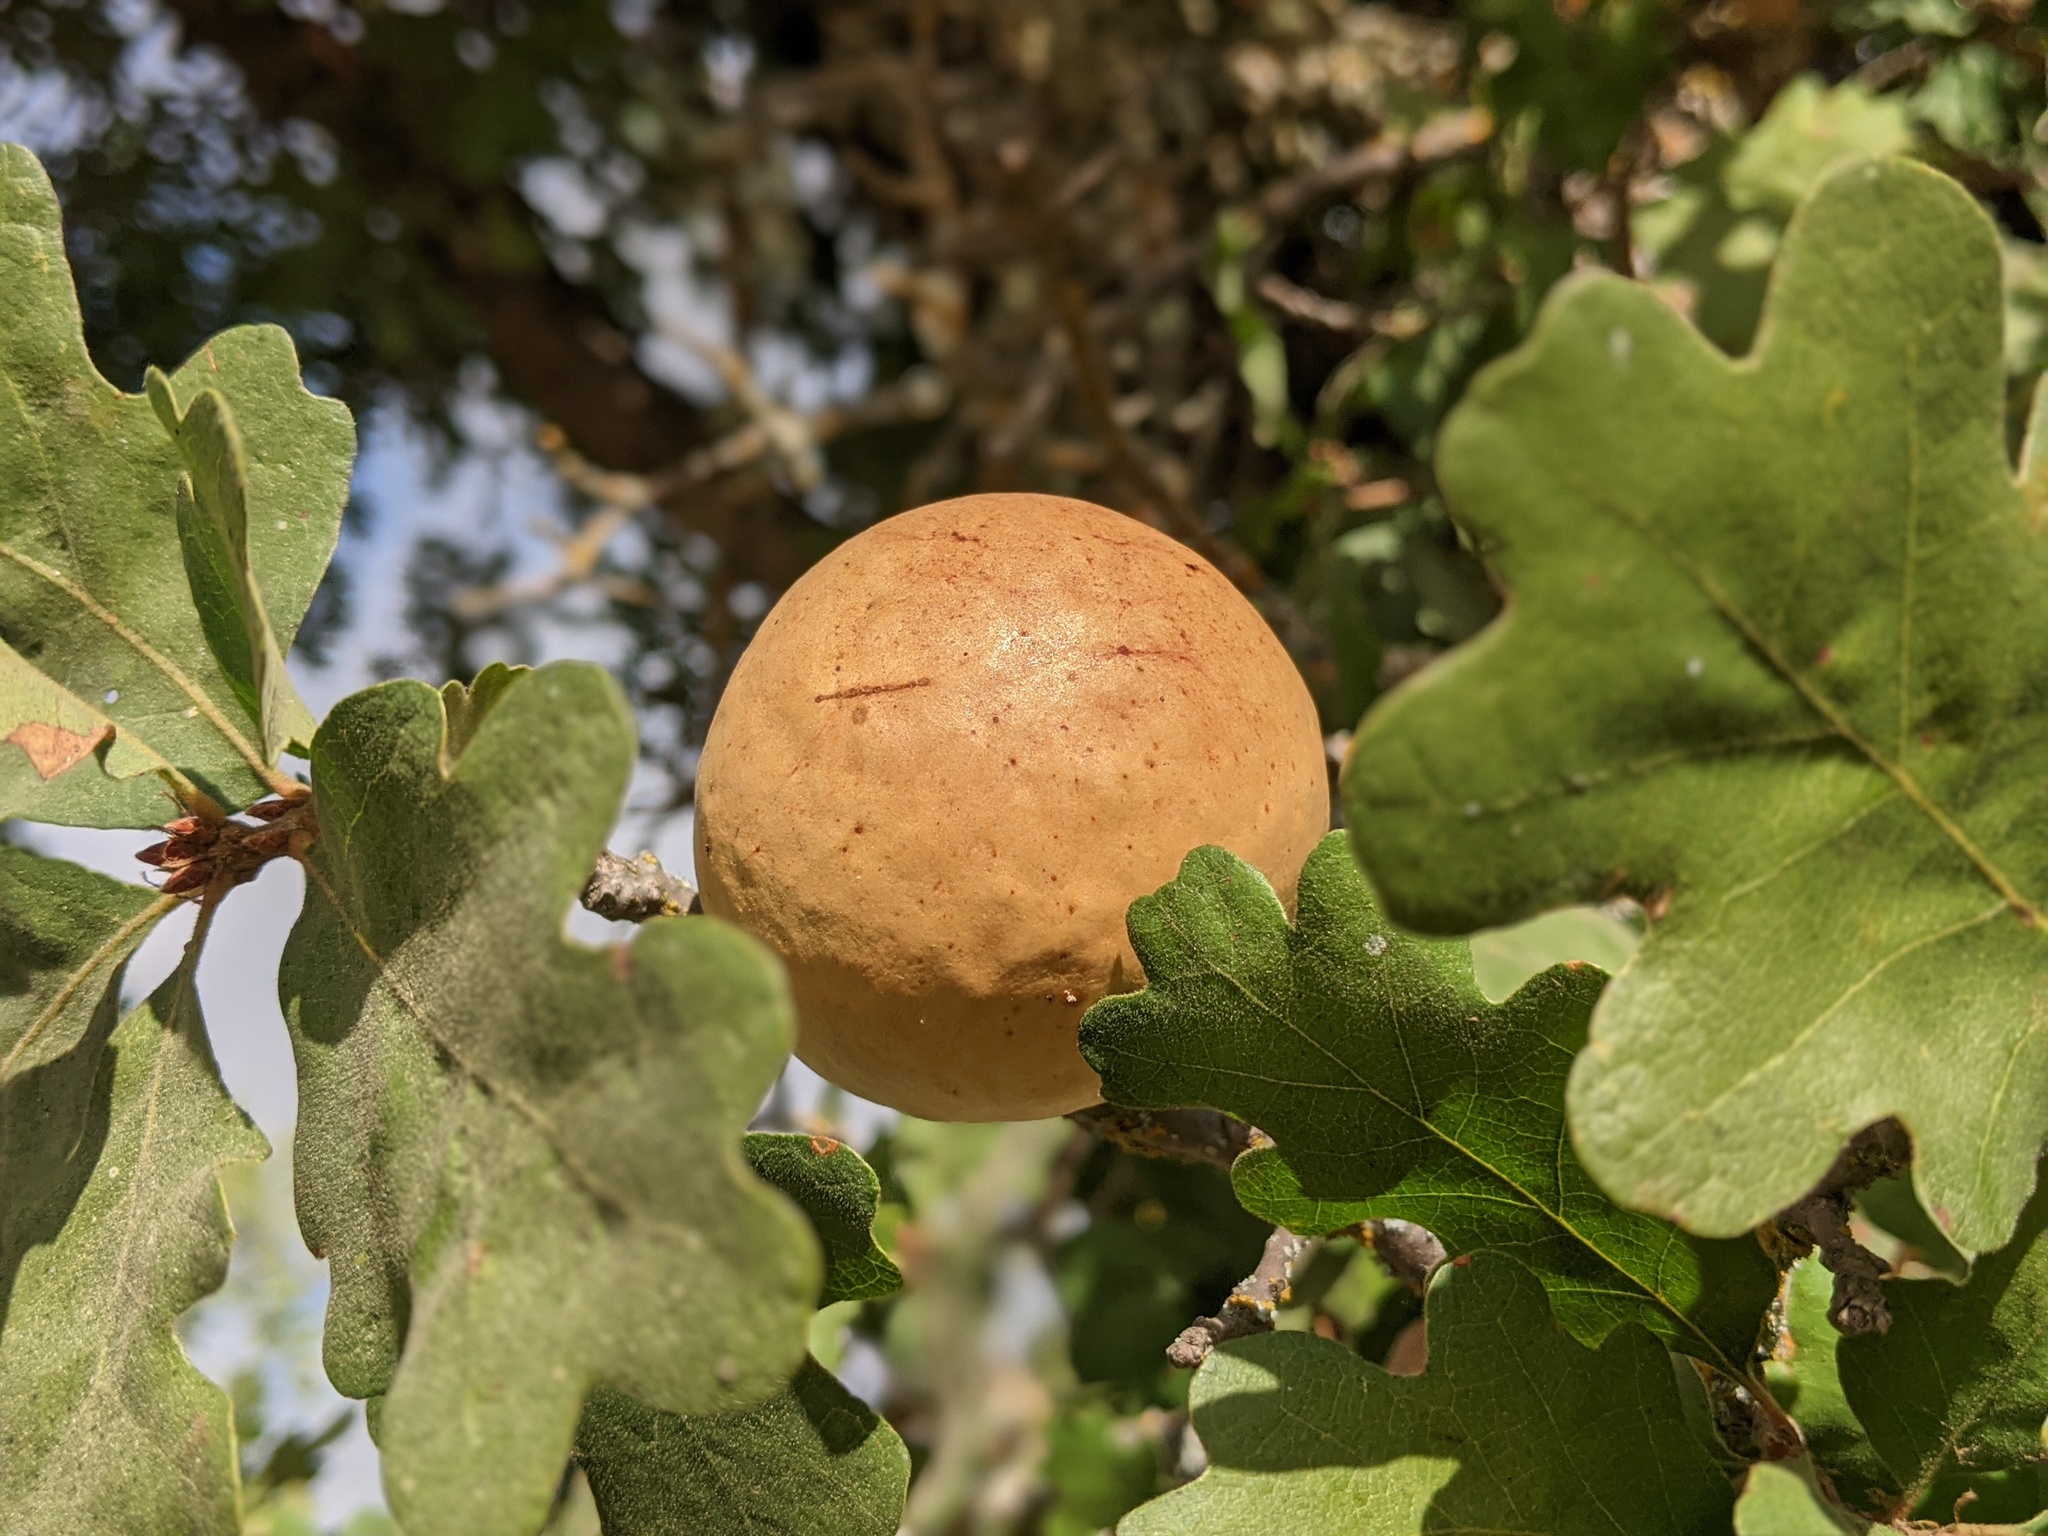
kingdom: Animalia
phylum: Arthropoda
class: Insecta
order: Hymenoptera
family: Cynipidae
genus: Andricus
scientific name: Andricus quercuscalifornicus
